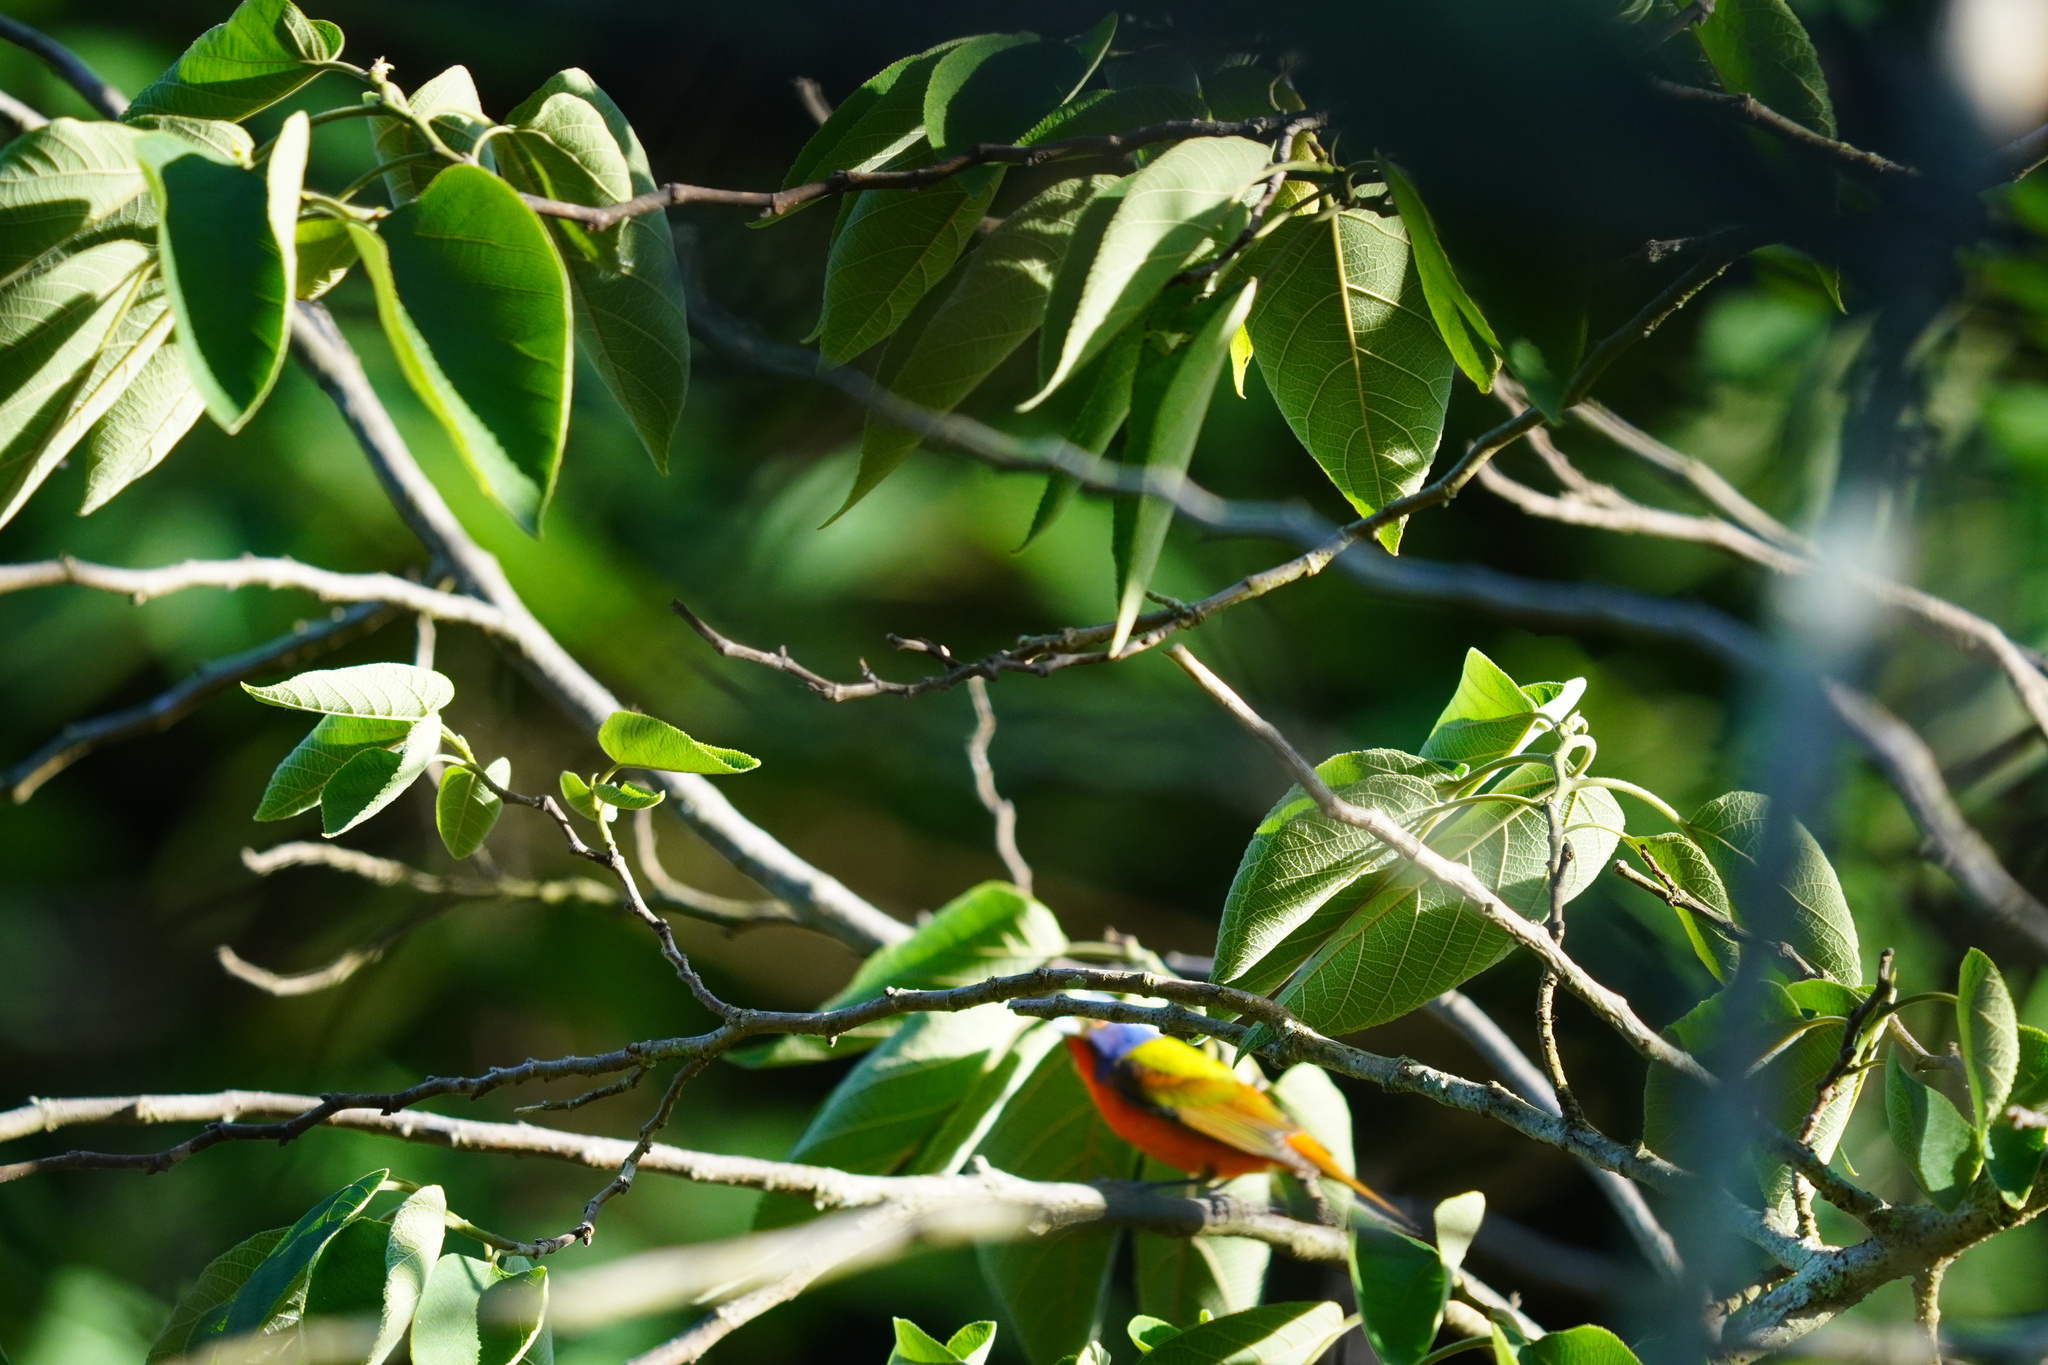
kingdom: Animalia
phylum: Chordata
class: Aves
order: Passeriformes
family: Cardinalidae
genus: Passerina
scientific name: Passerina ciris
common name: Painted bunting
